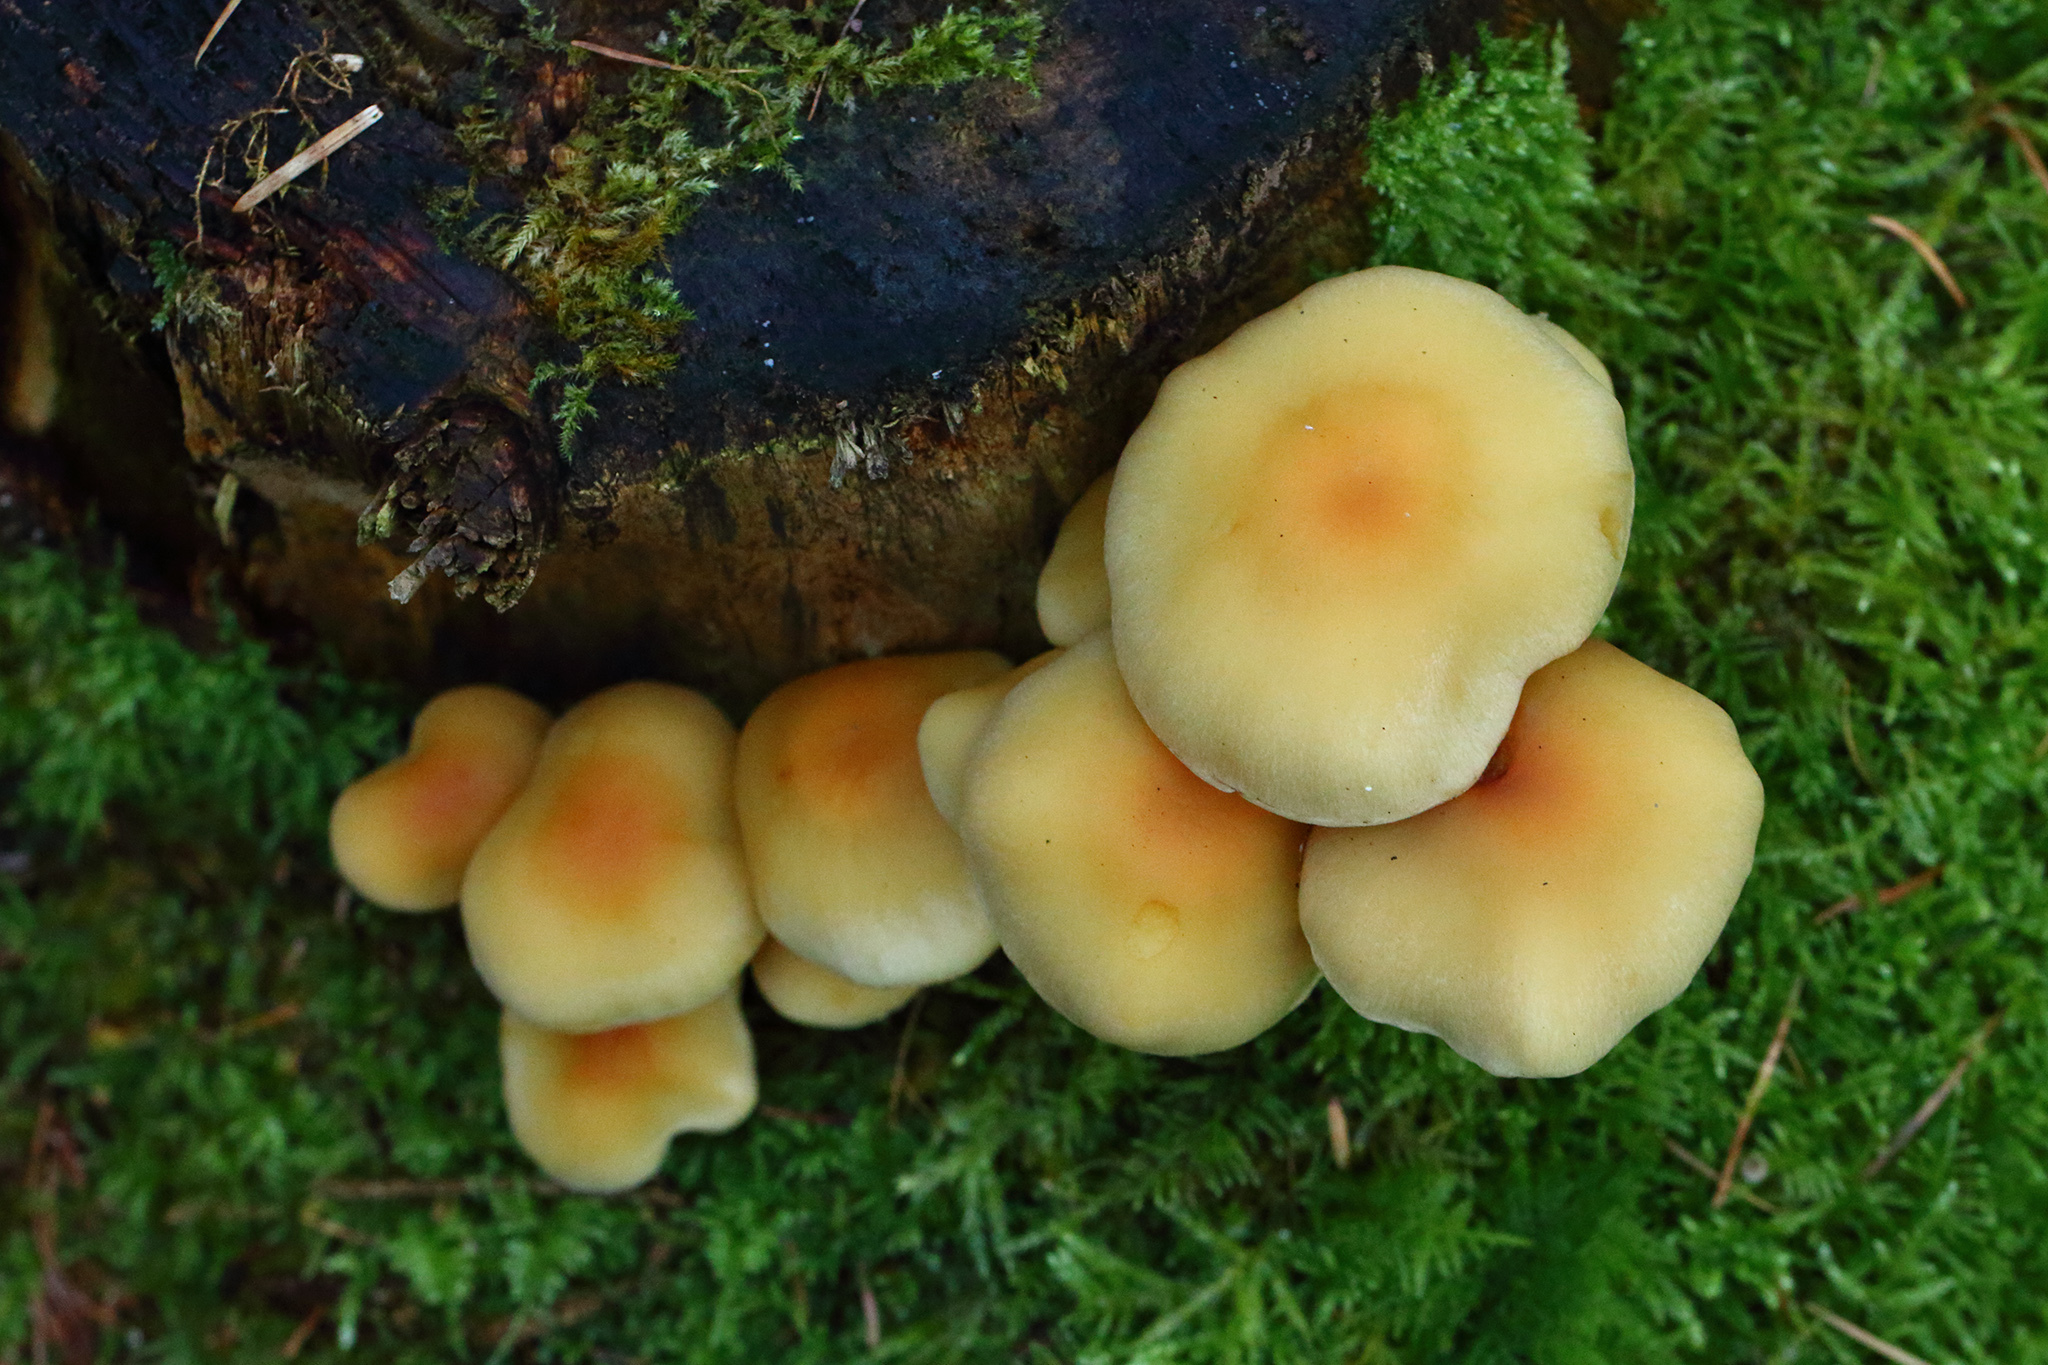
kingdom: Fungi
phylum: Basidiomycota
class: Agaricomycetes
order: Agaricales
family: Strophariaceae
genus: Hypholoma
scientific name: Hypholoma fasciculare
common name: Sulphur tuft
